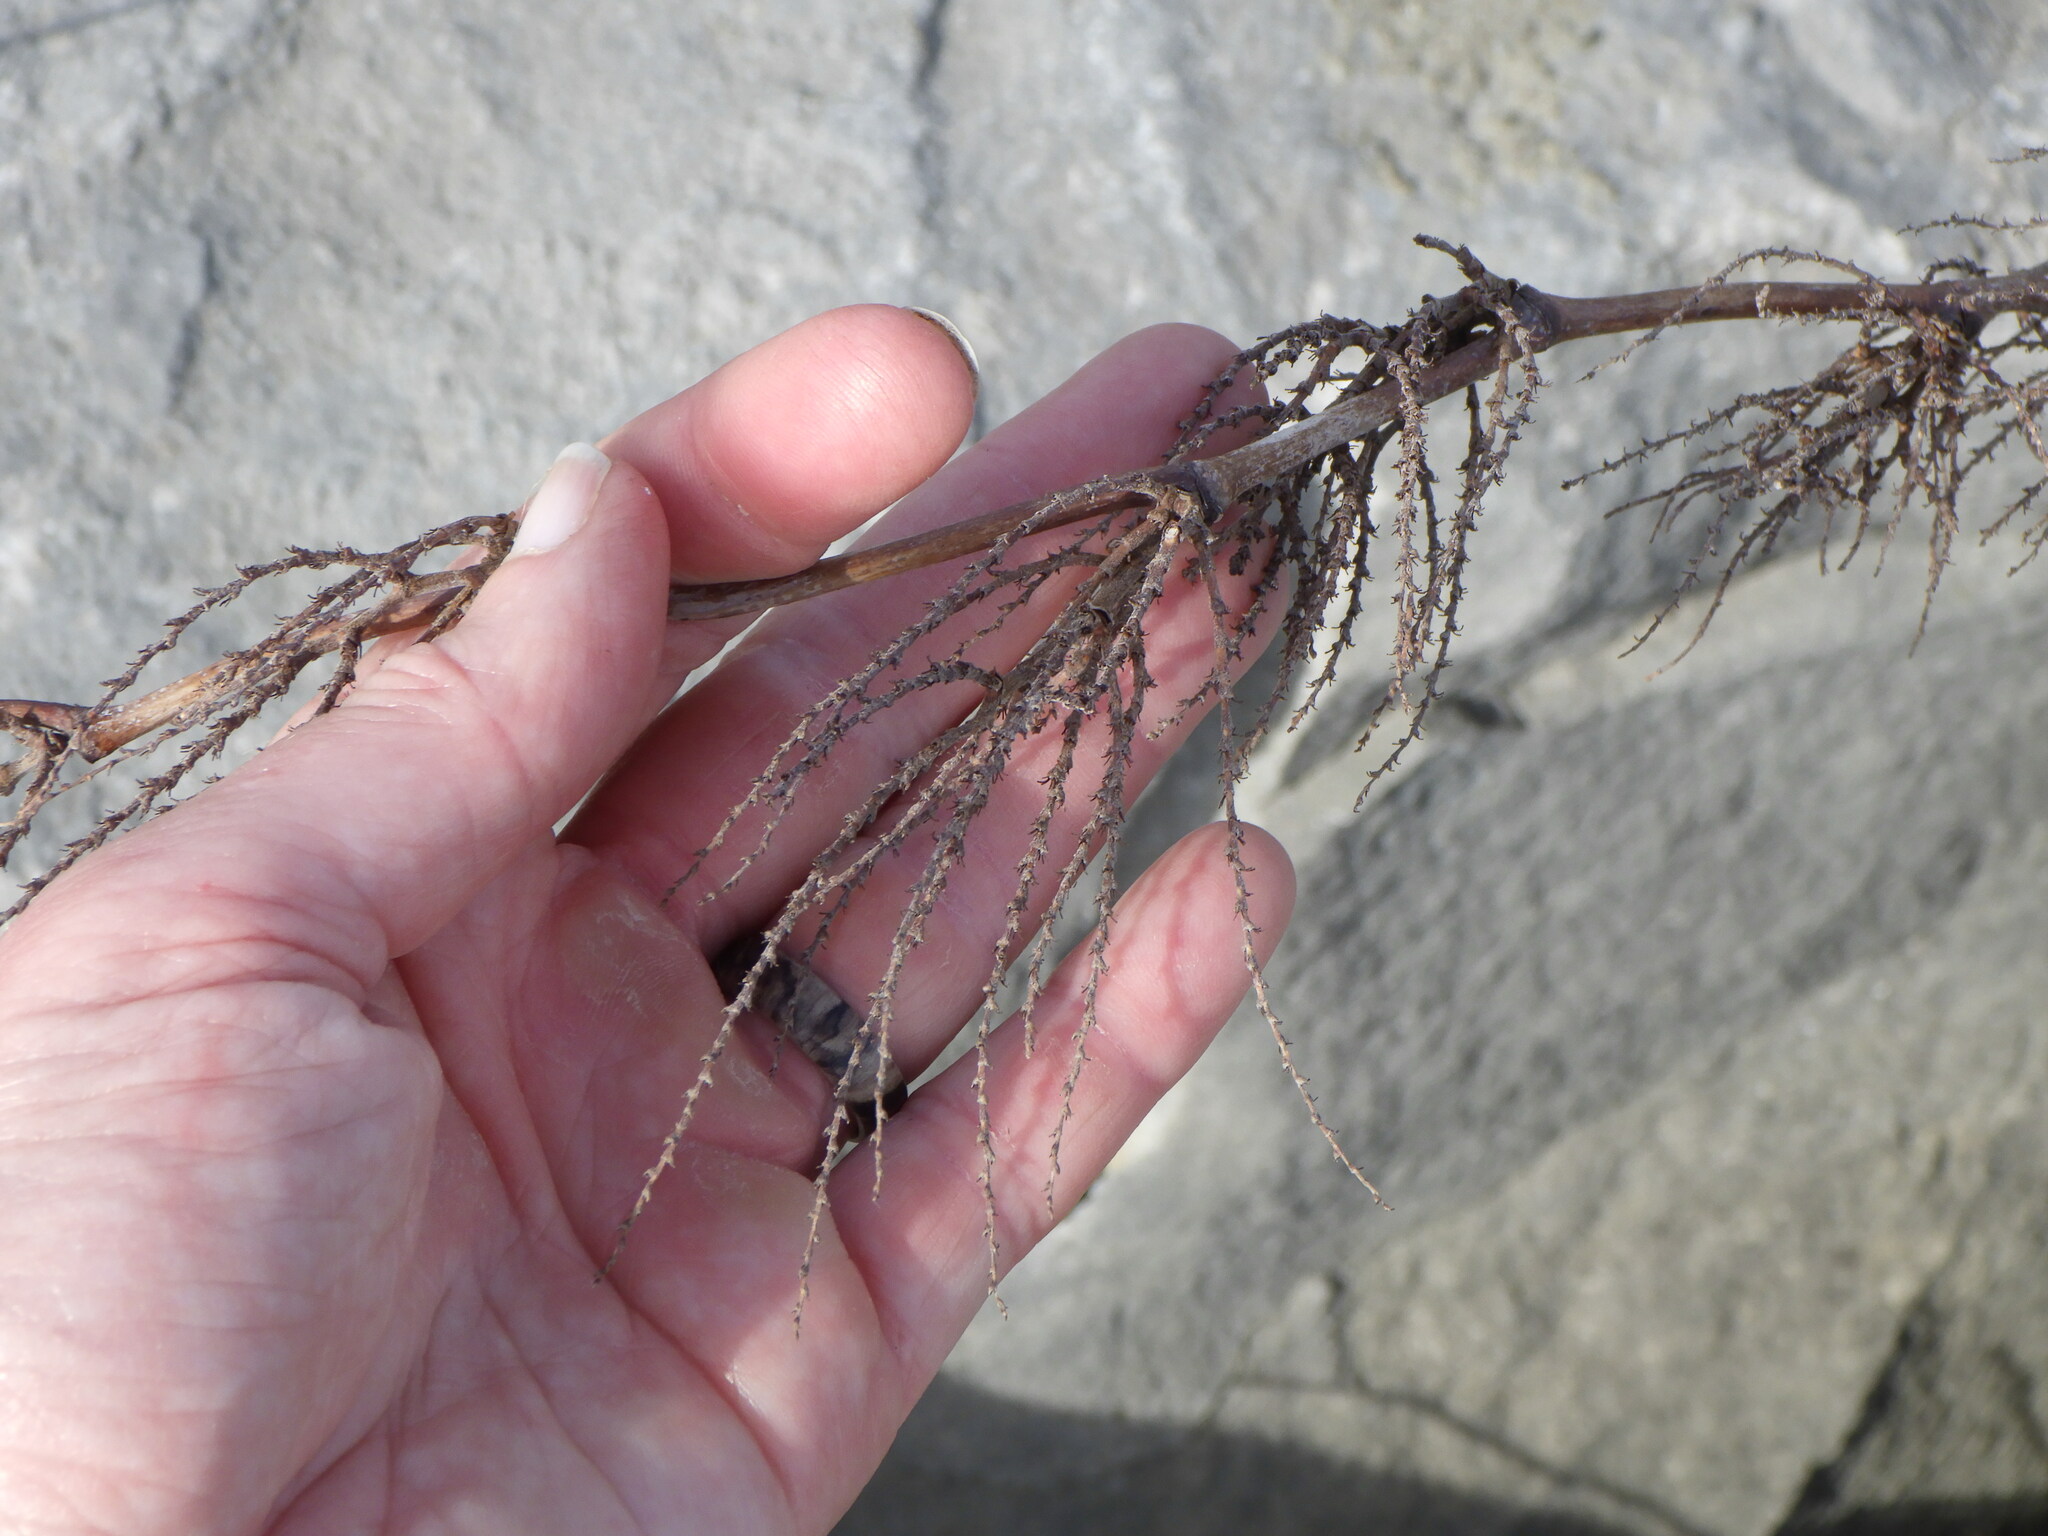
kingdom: Plantae
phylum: Tracheophyta
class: Magnoliopsida
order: Caryophyllales
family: Polygonaceae
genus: Reynoutria
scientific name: Reynoutria japonica
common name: Japanese knotweed
